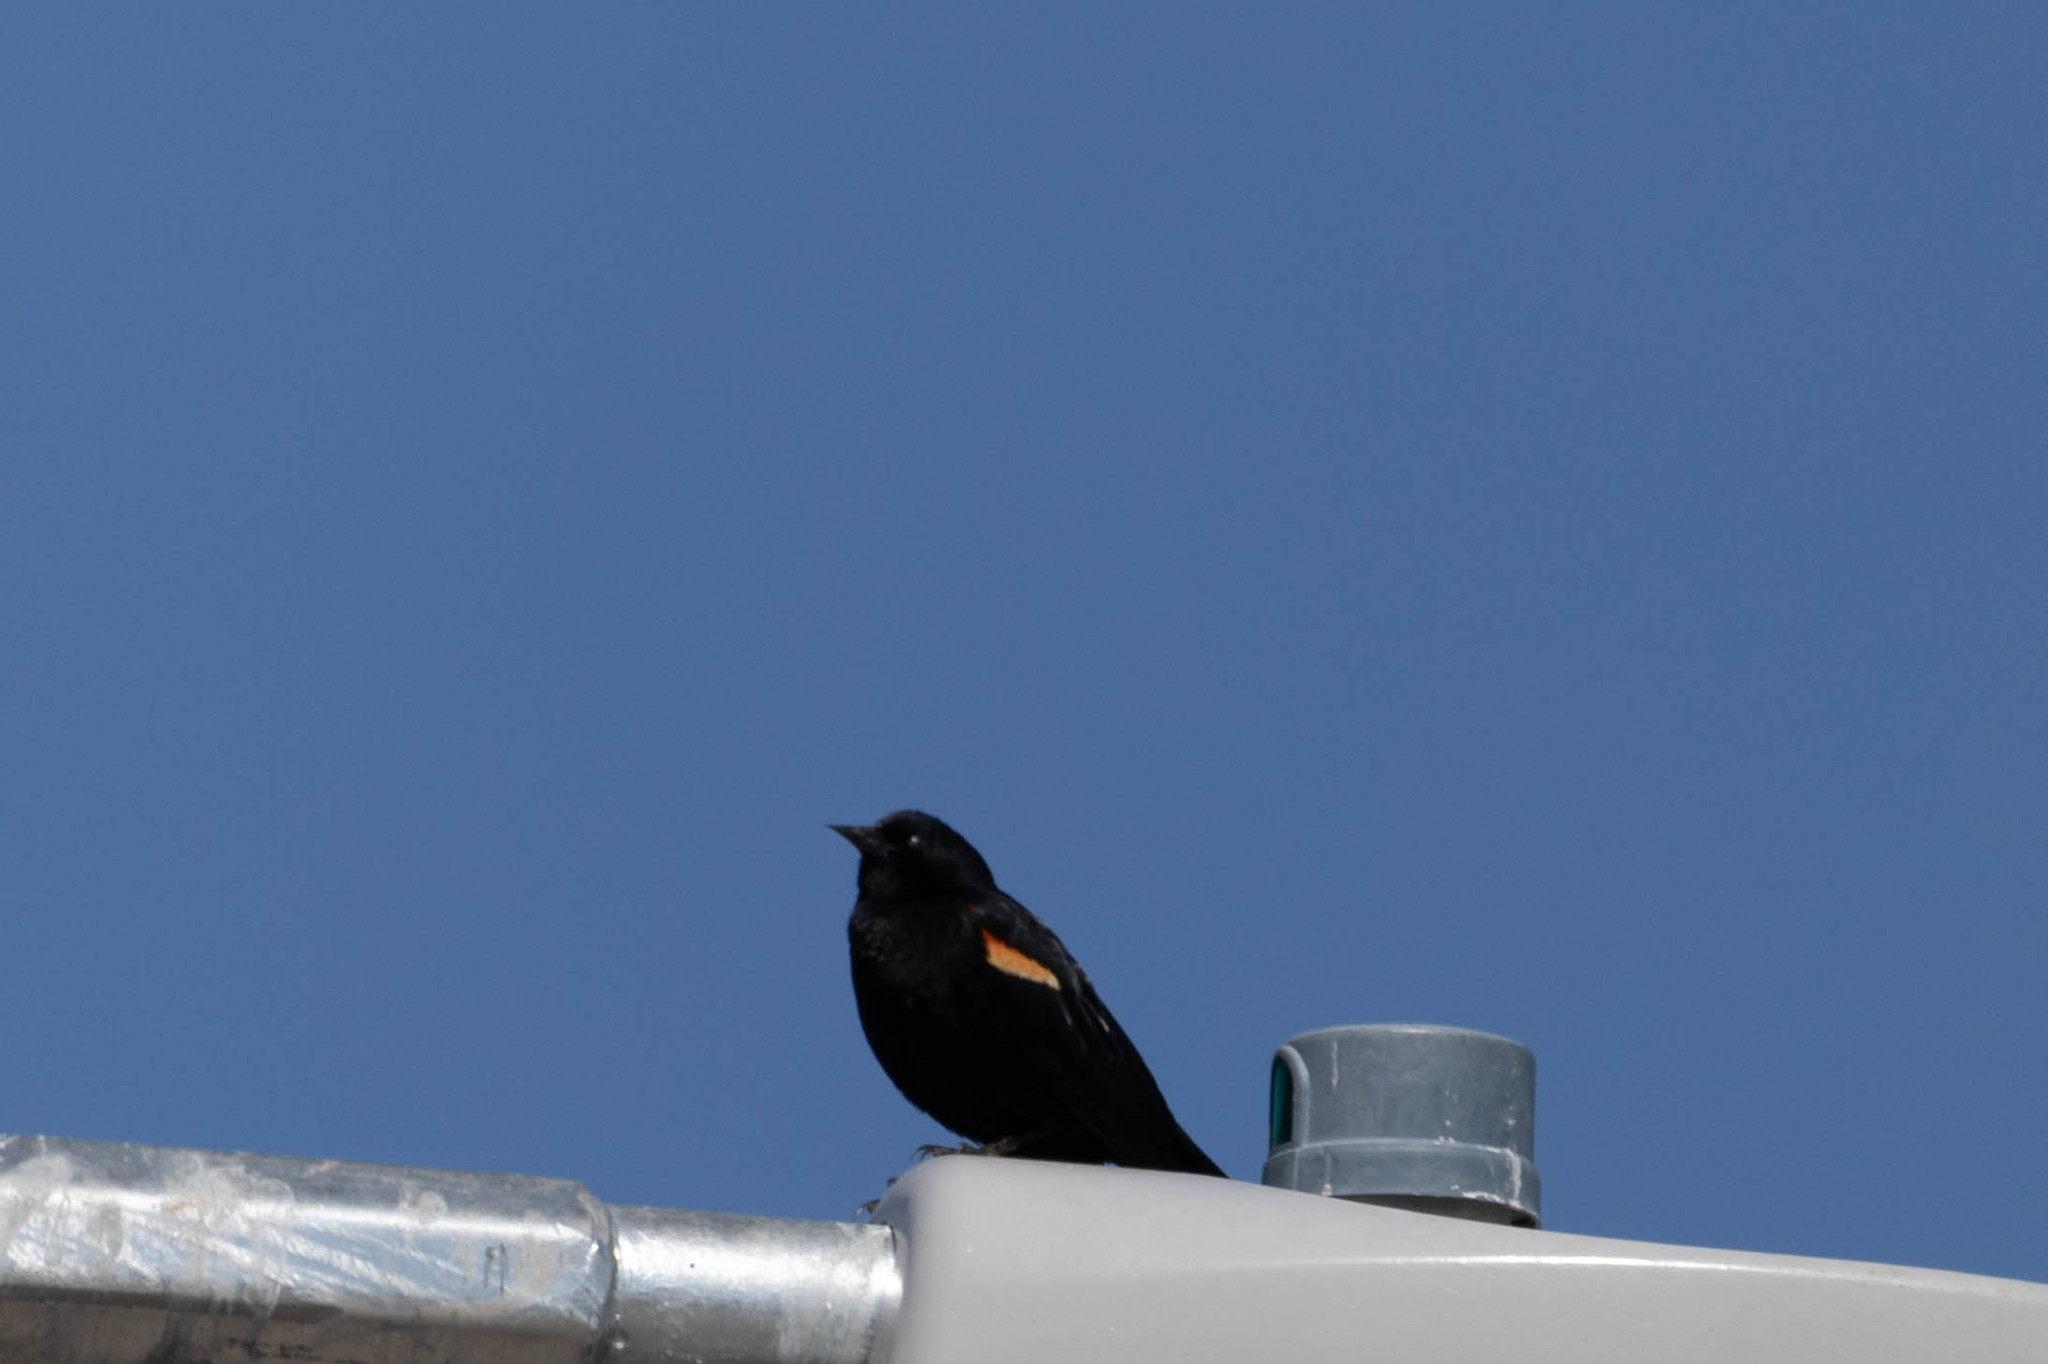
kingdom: Animalia
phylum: Chordata
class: Aves
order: Passeriformes
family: Icteridae
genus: Agelaius
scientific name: Agelaius phoeniceus
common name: Red-winged blackbird
